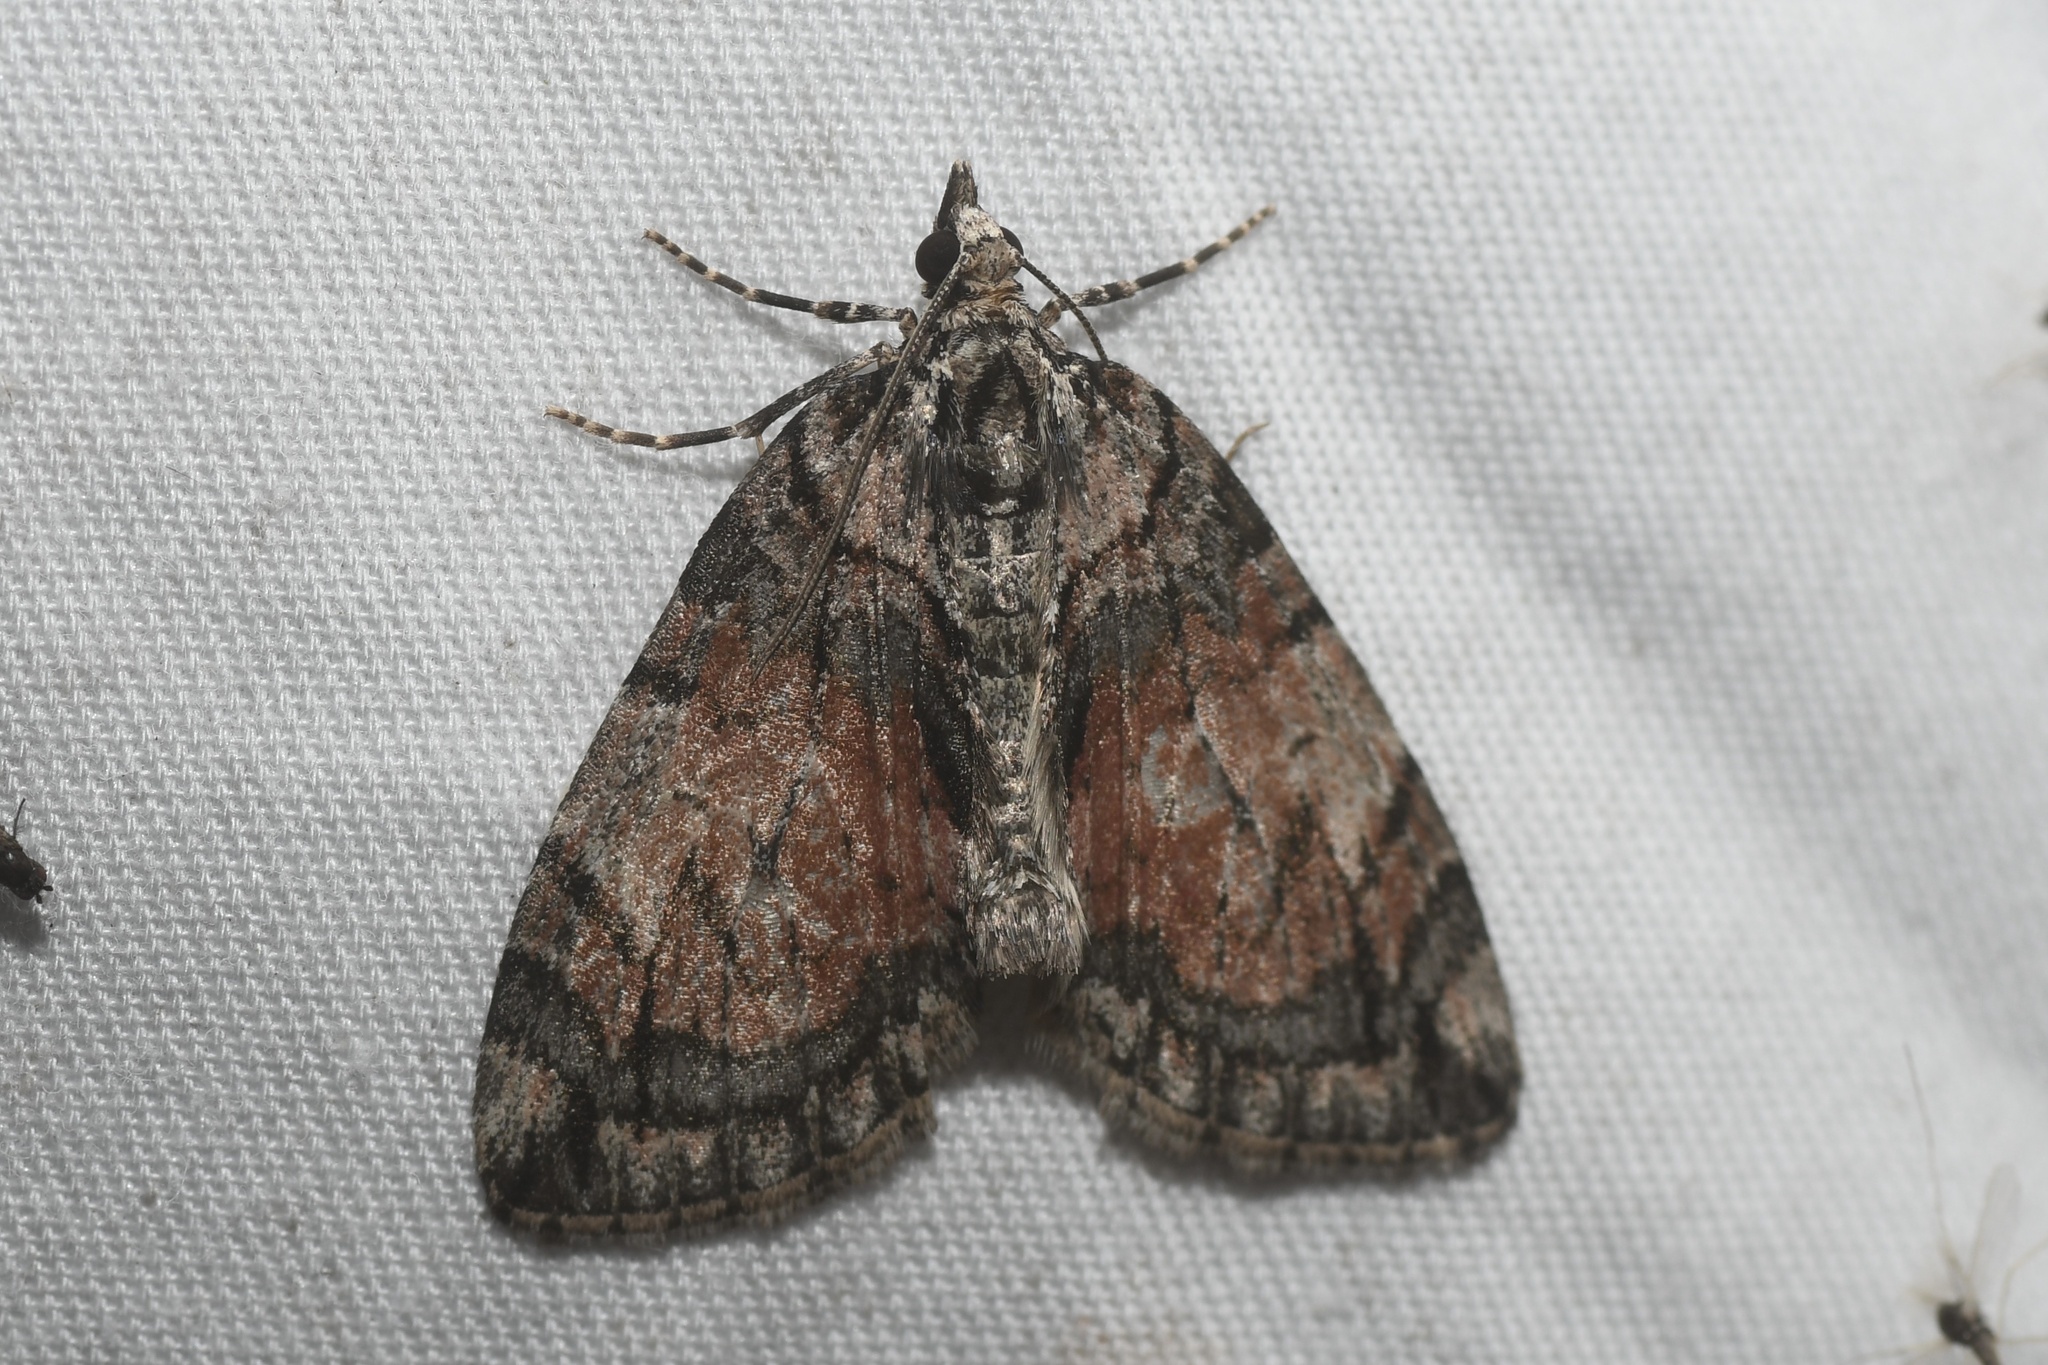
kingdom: Animalia
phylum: Arthropoda
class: Insecta
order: Lepidoptera
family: Geometridae
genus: Hydriomena
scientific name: Hydriomena perfracta
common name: Shattered hydriomena moth
